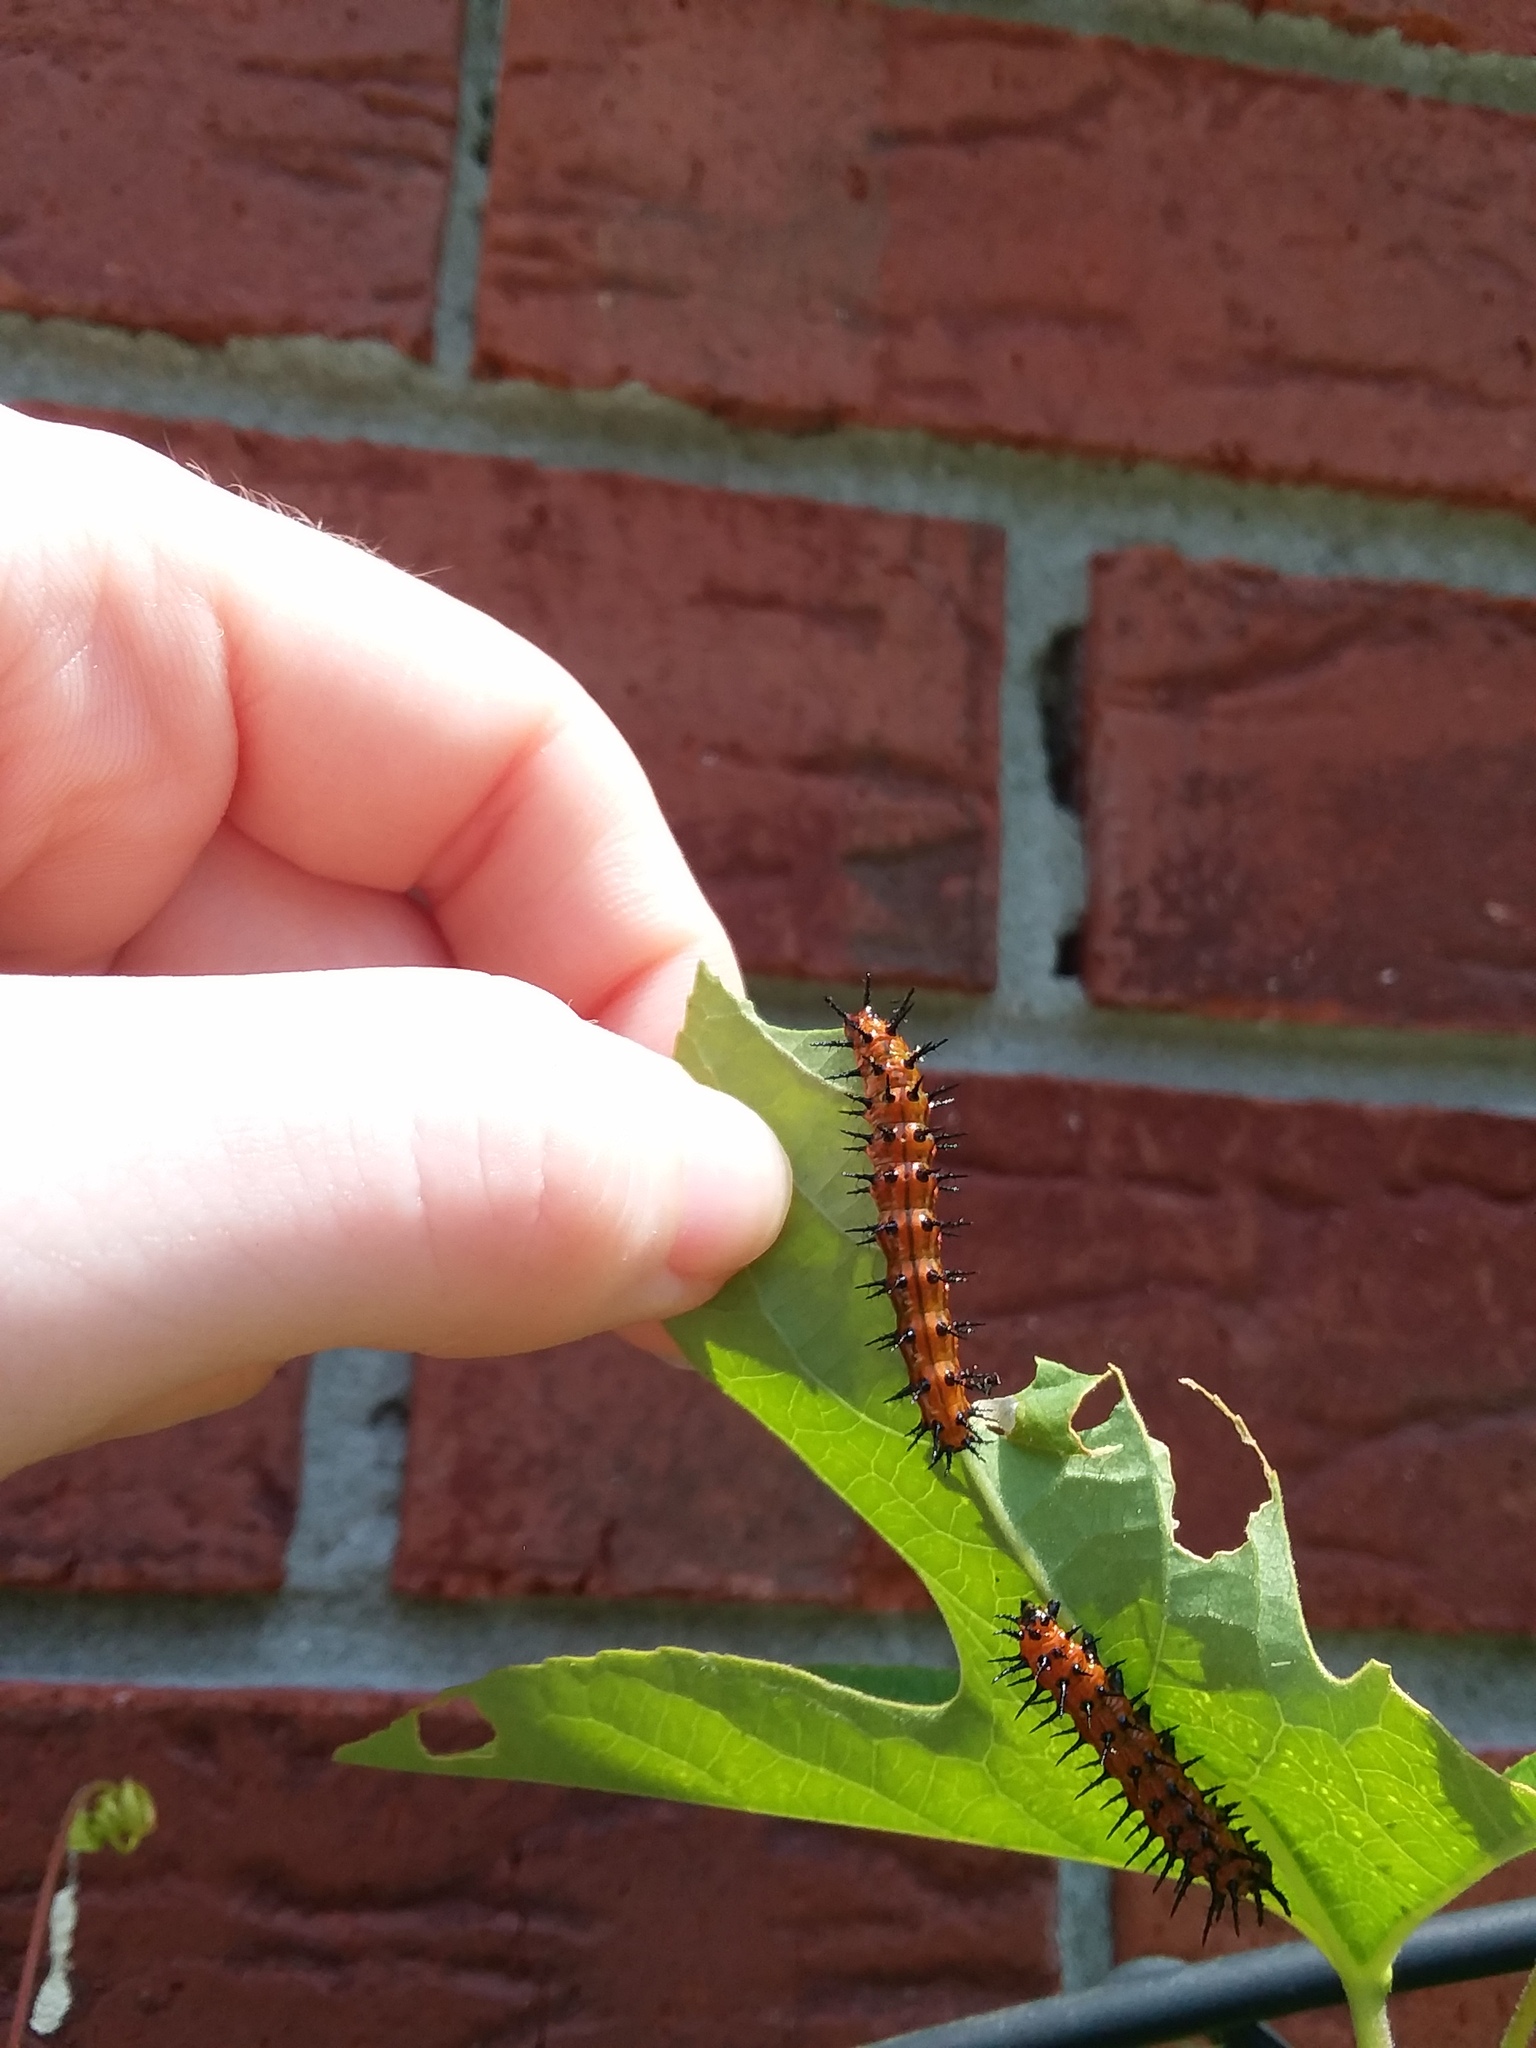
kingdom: Animalia
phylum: Arthropoda
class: Insecta
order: Lepidoptera
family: Nymphalidae
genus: Dione
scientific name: Dione vanillae
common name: Gulf fritillary
